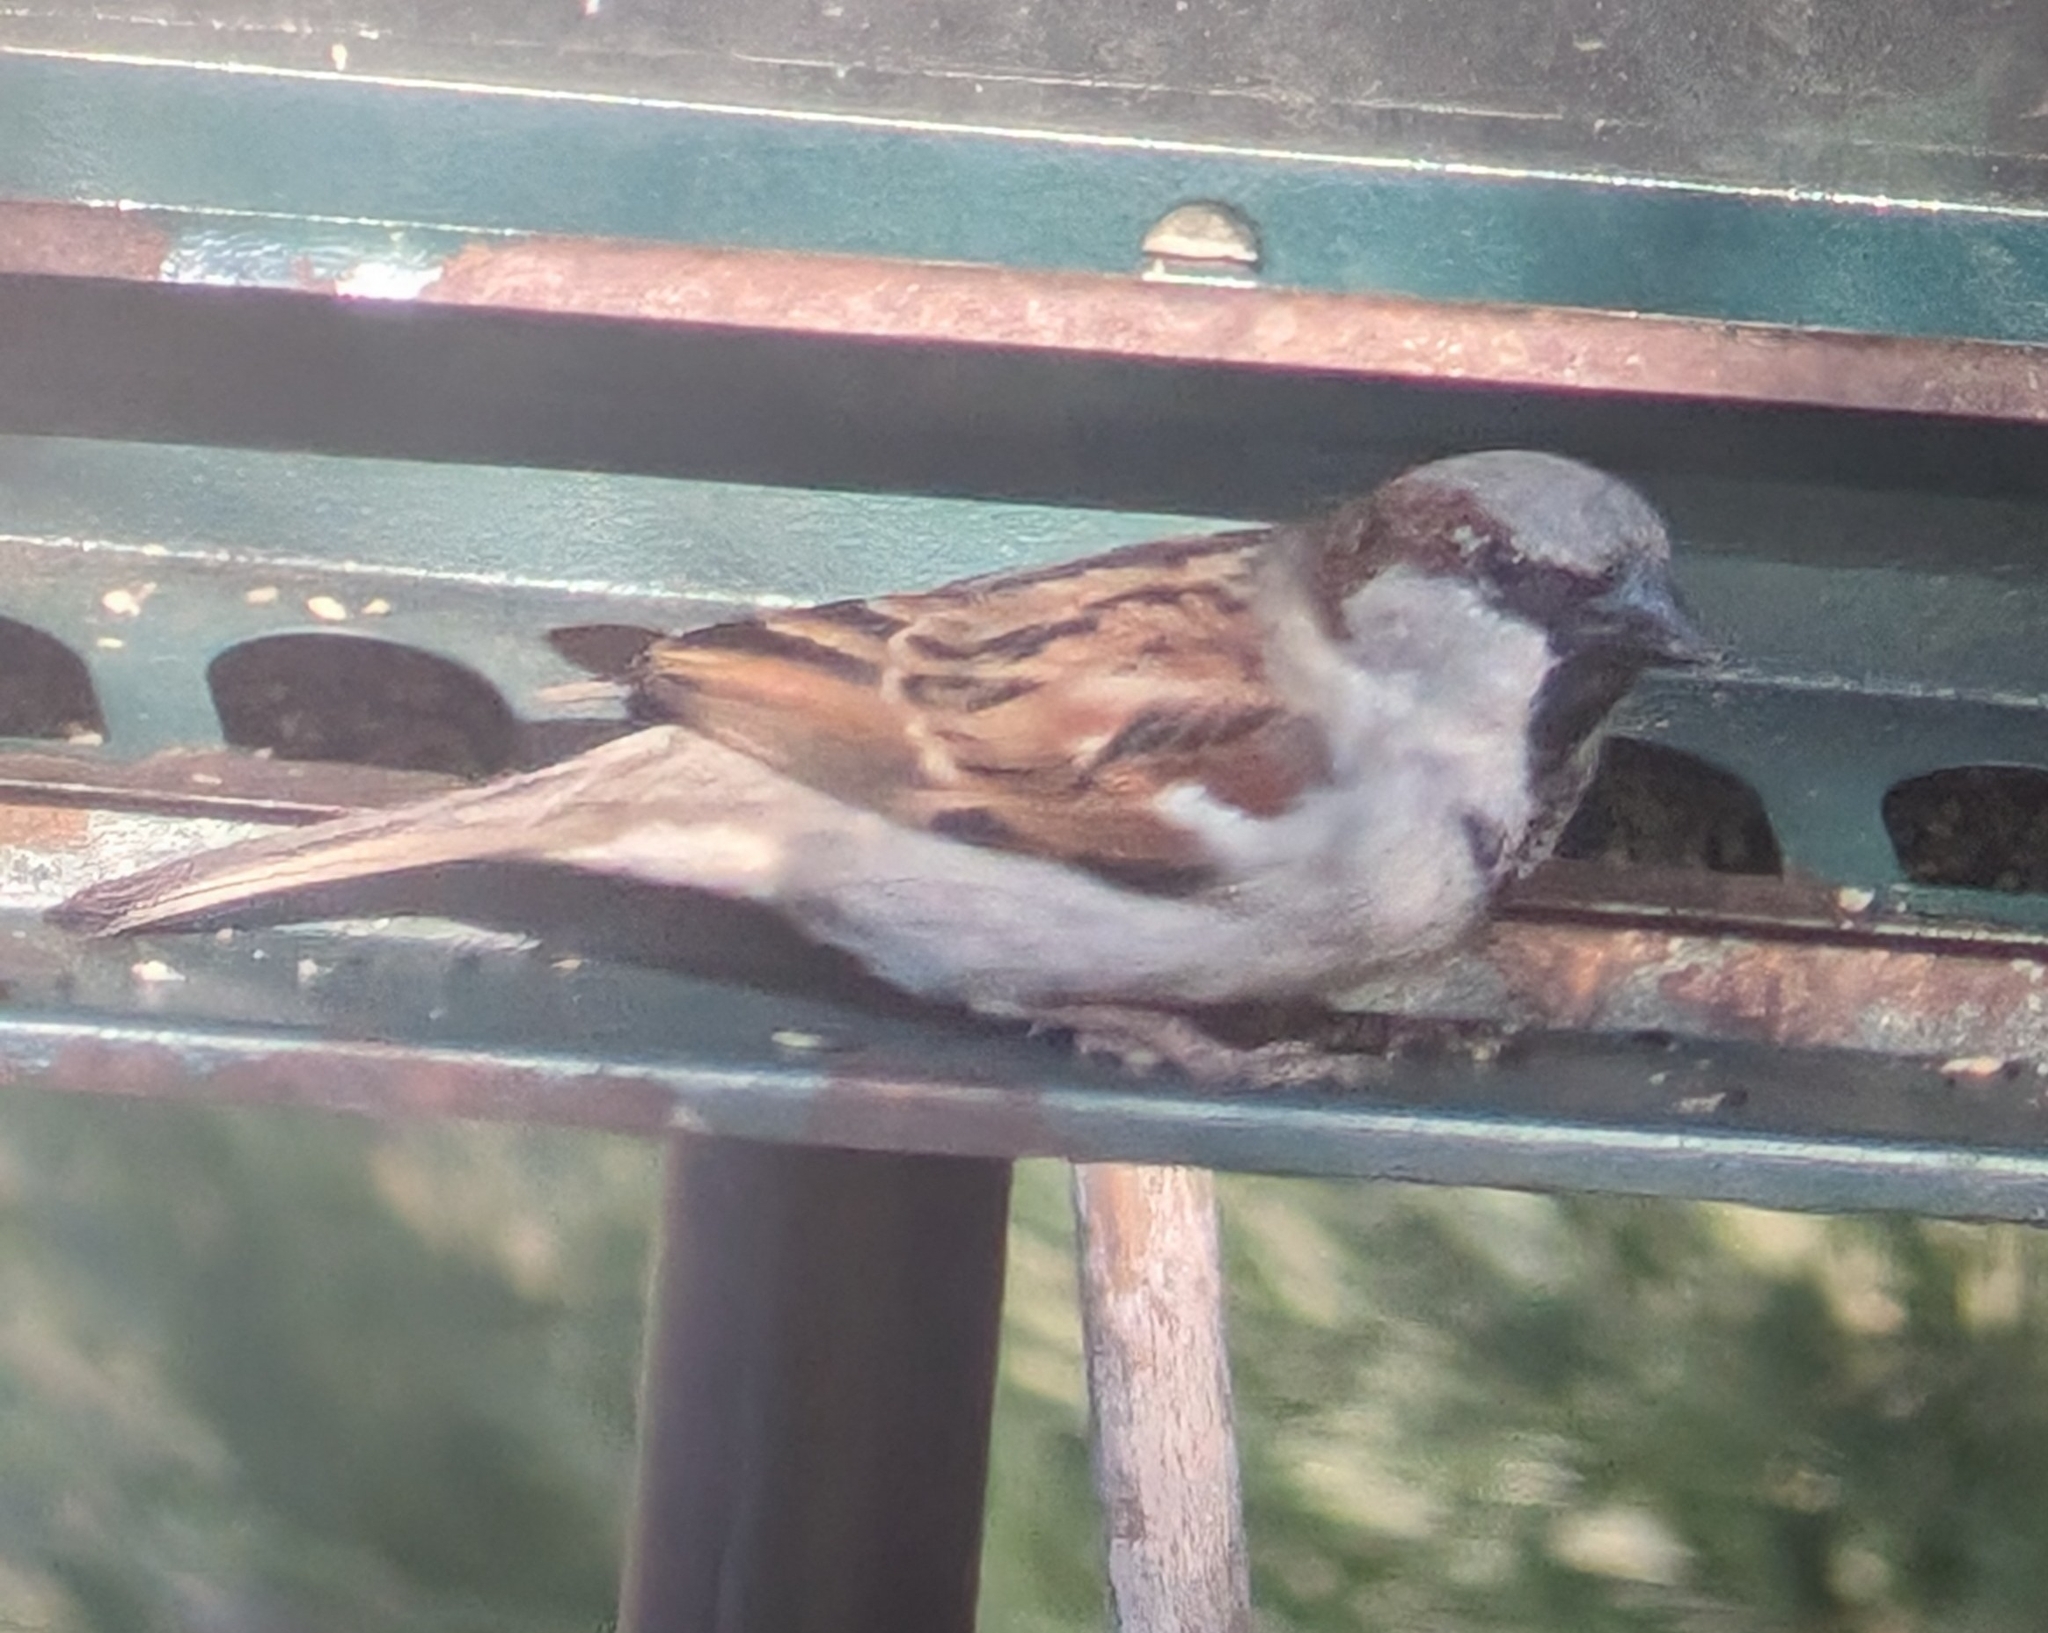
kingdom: Animalia
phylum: Chordata
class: Aves
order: Passeriformes
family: Passeridae
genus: Passer
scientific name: Passer domesticus
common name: House sparrow
